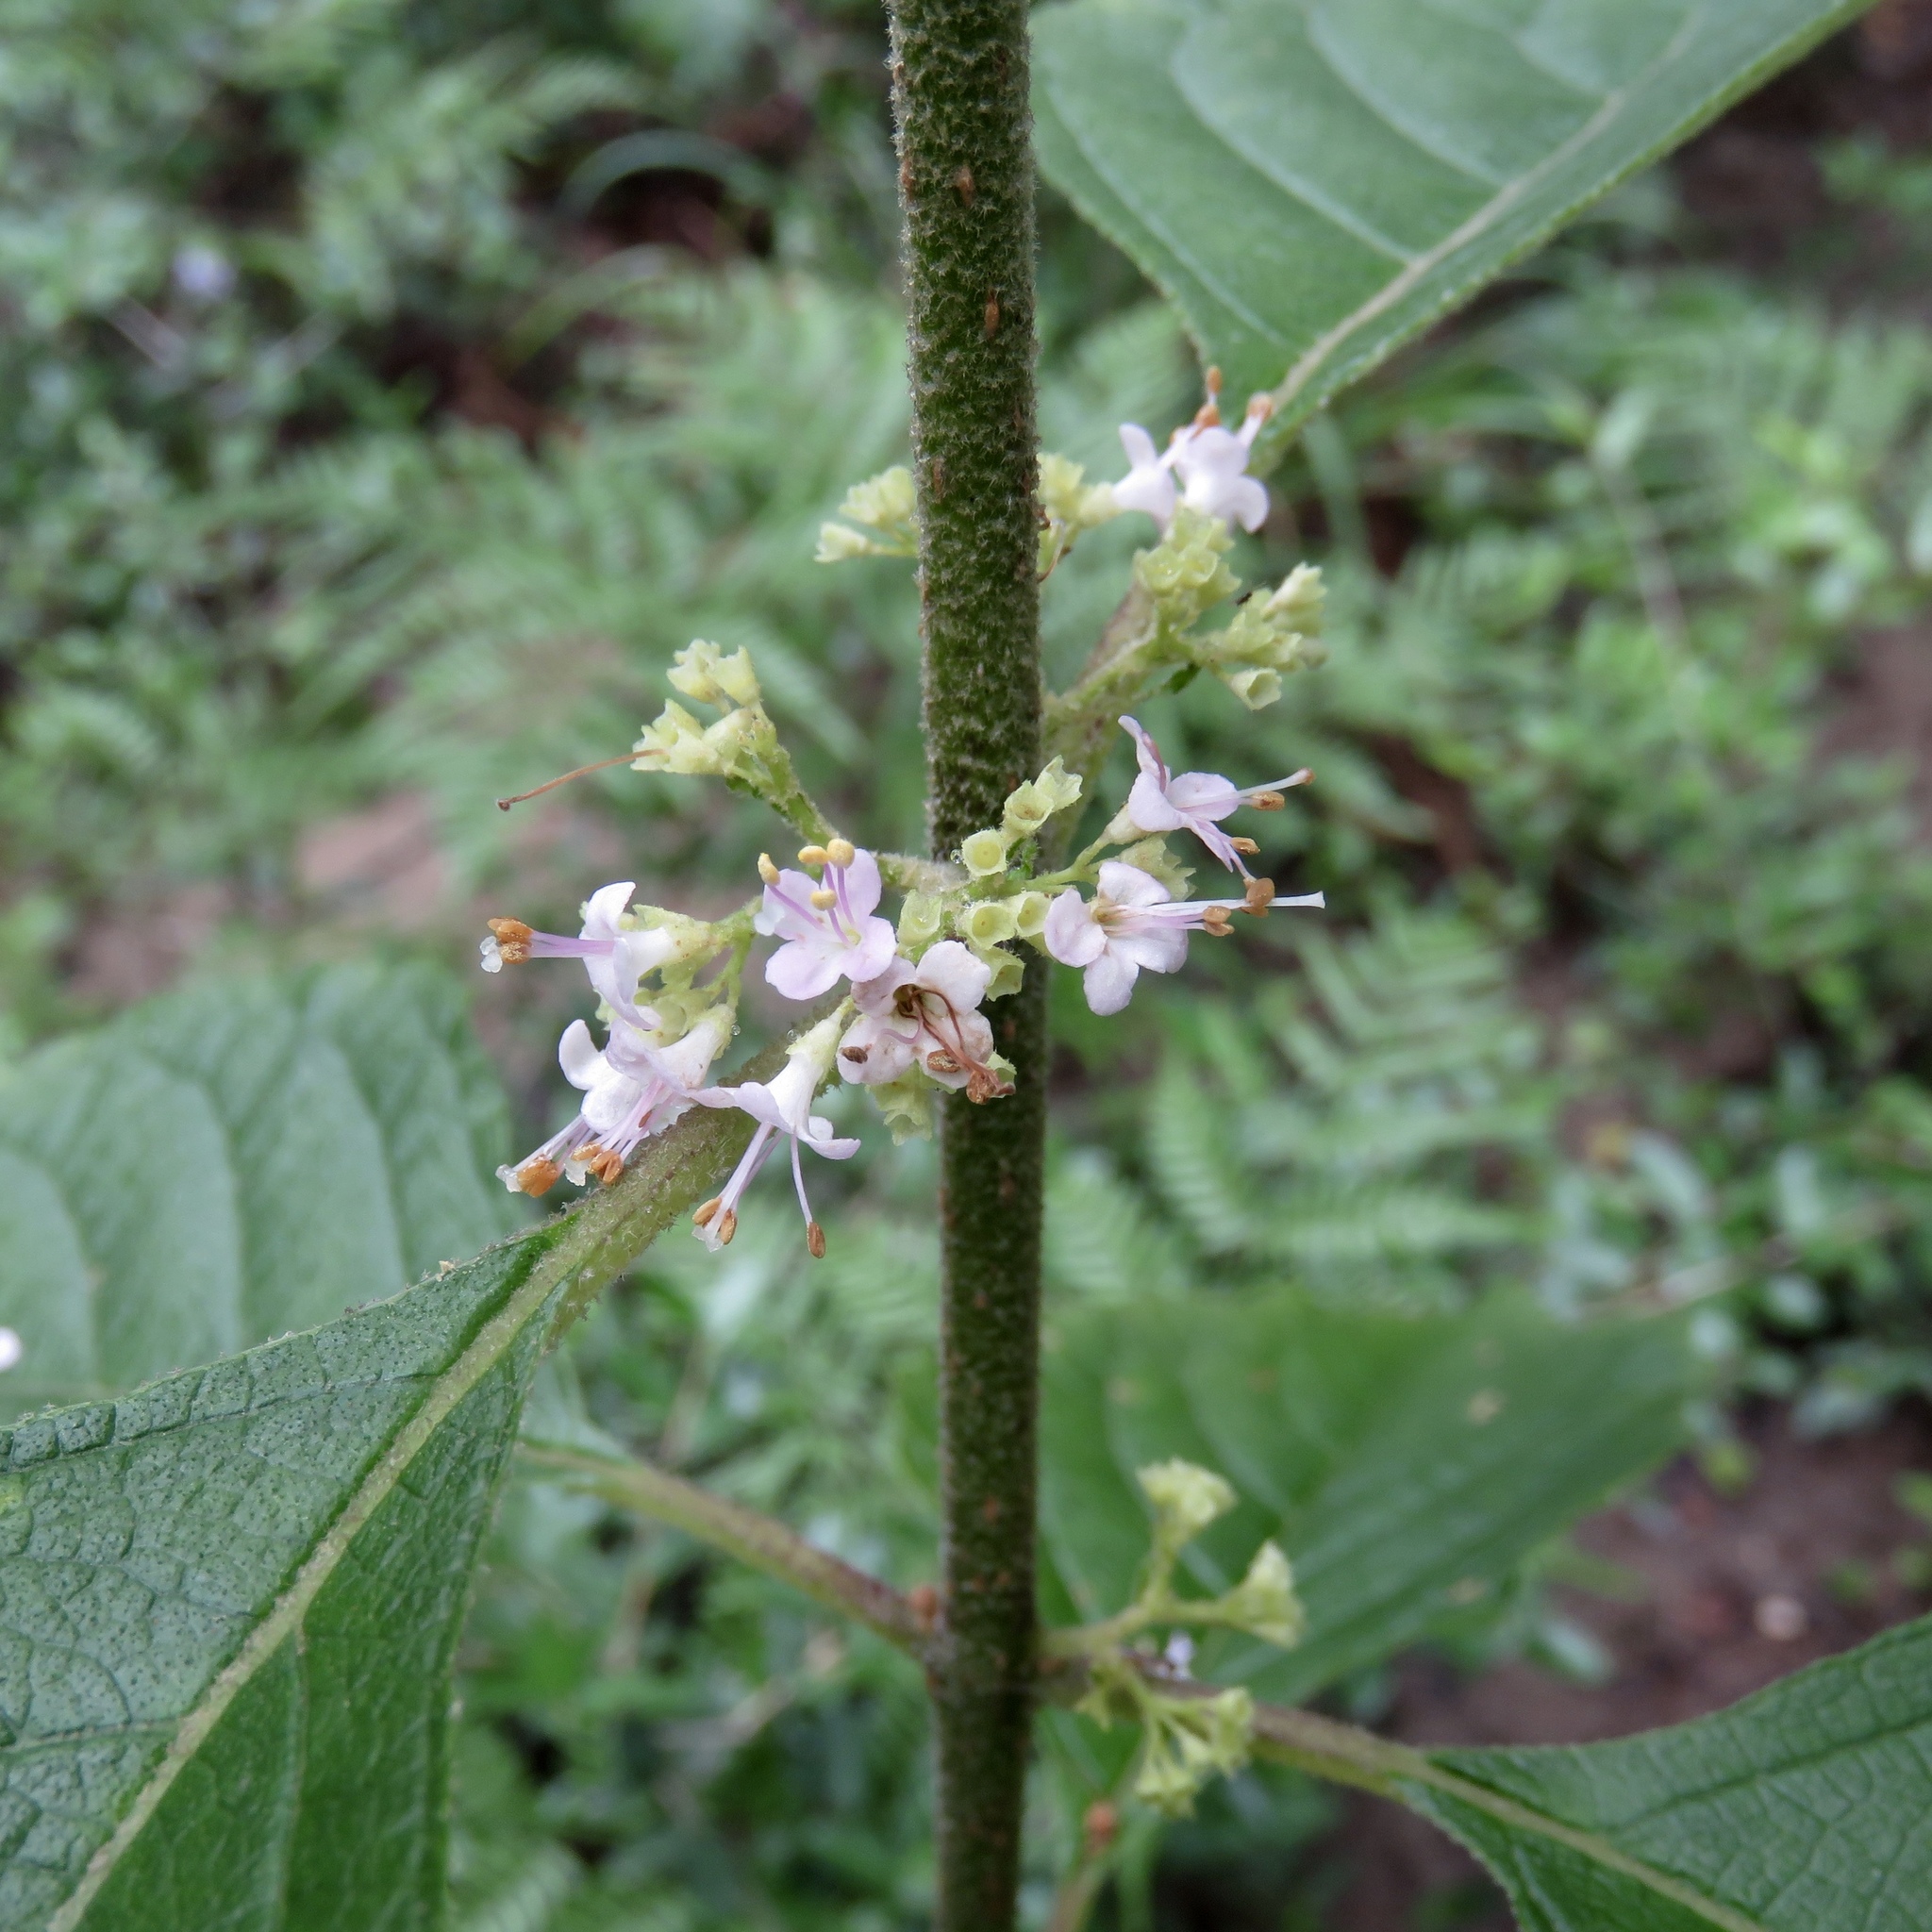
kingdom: Plantae
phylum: Tracheophyta
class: Magnoliopsida
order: Lamiales
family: Lamiaceae
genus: Callicarpa
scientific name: Callicarpa americana
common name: American beautyberry
